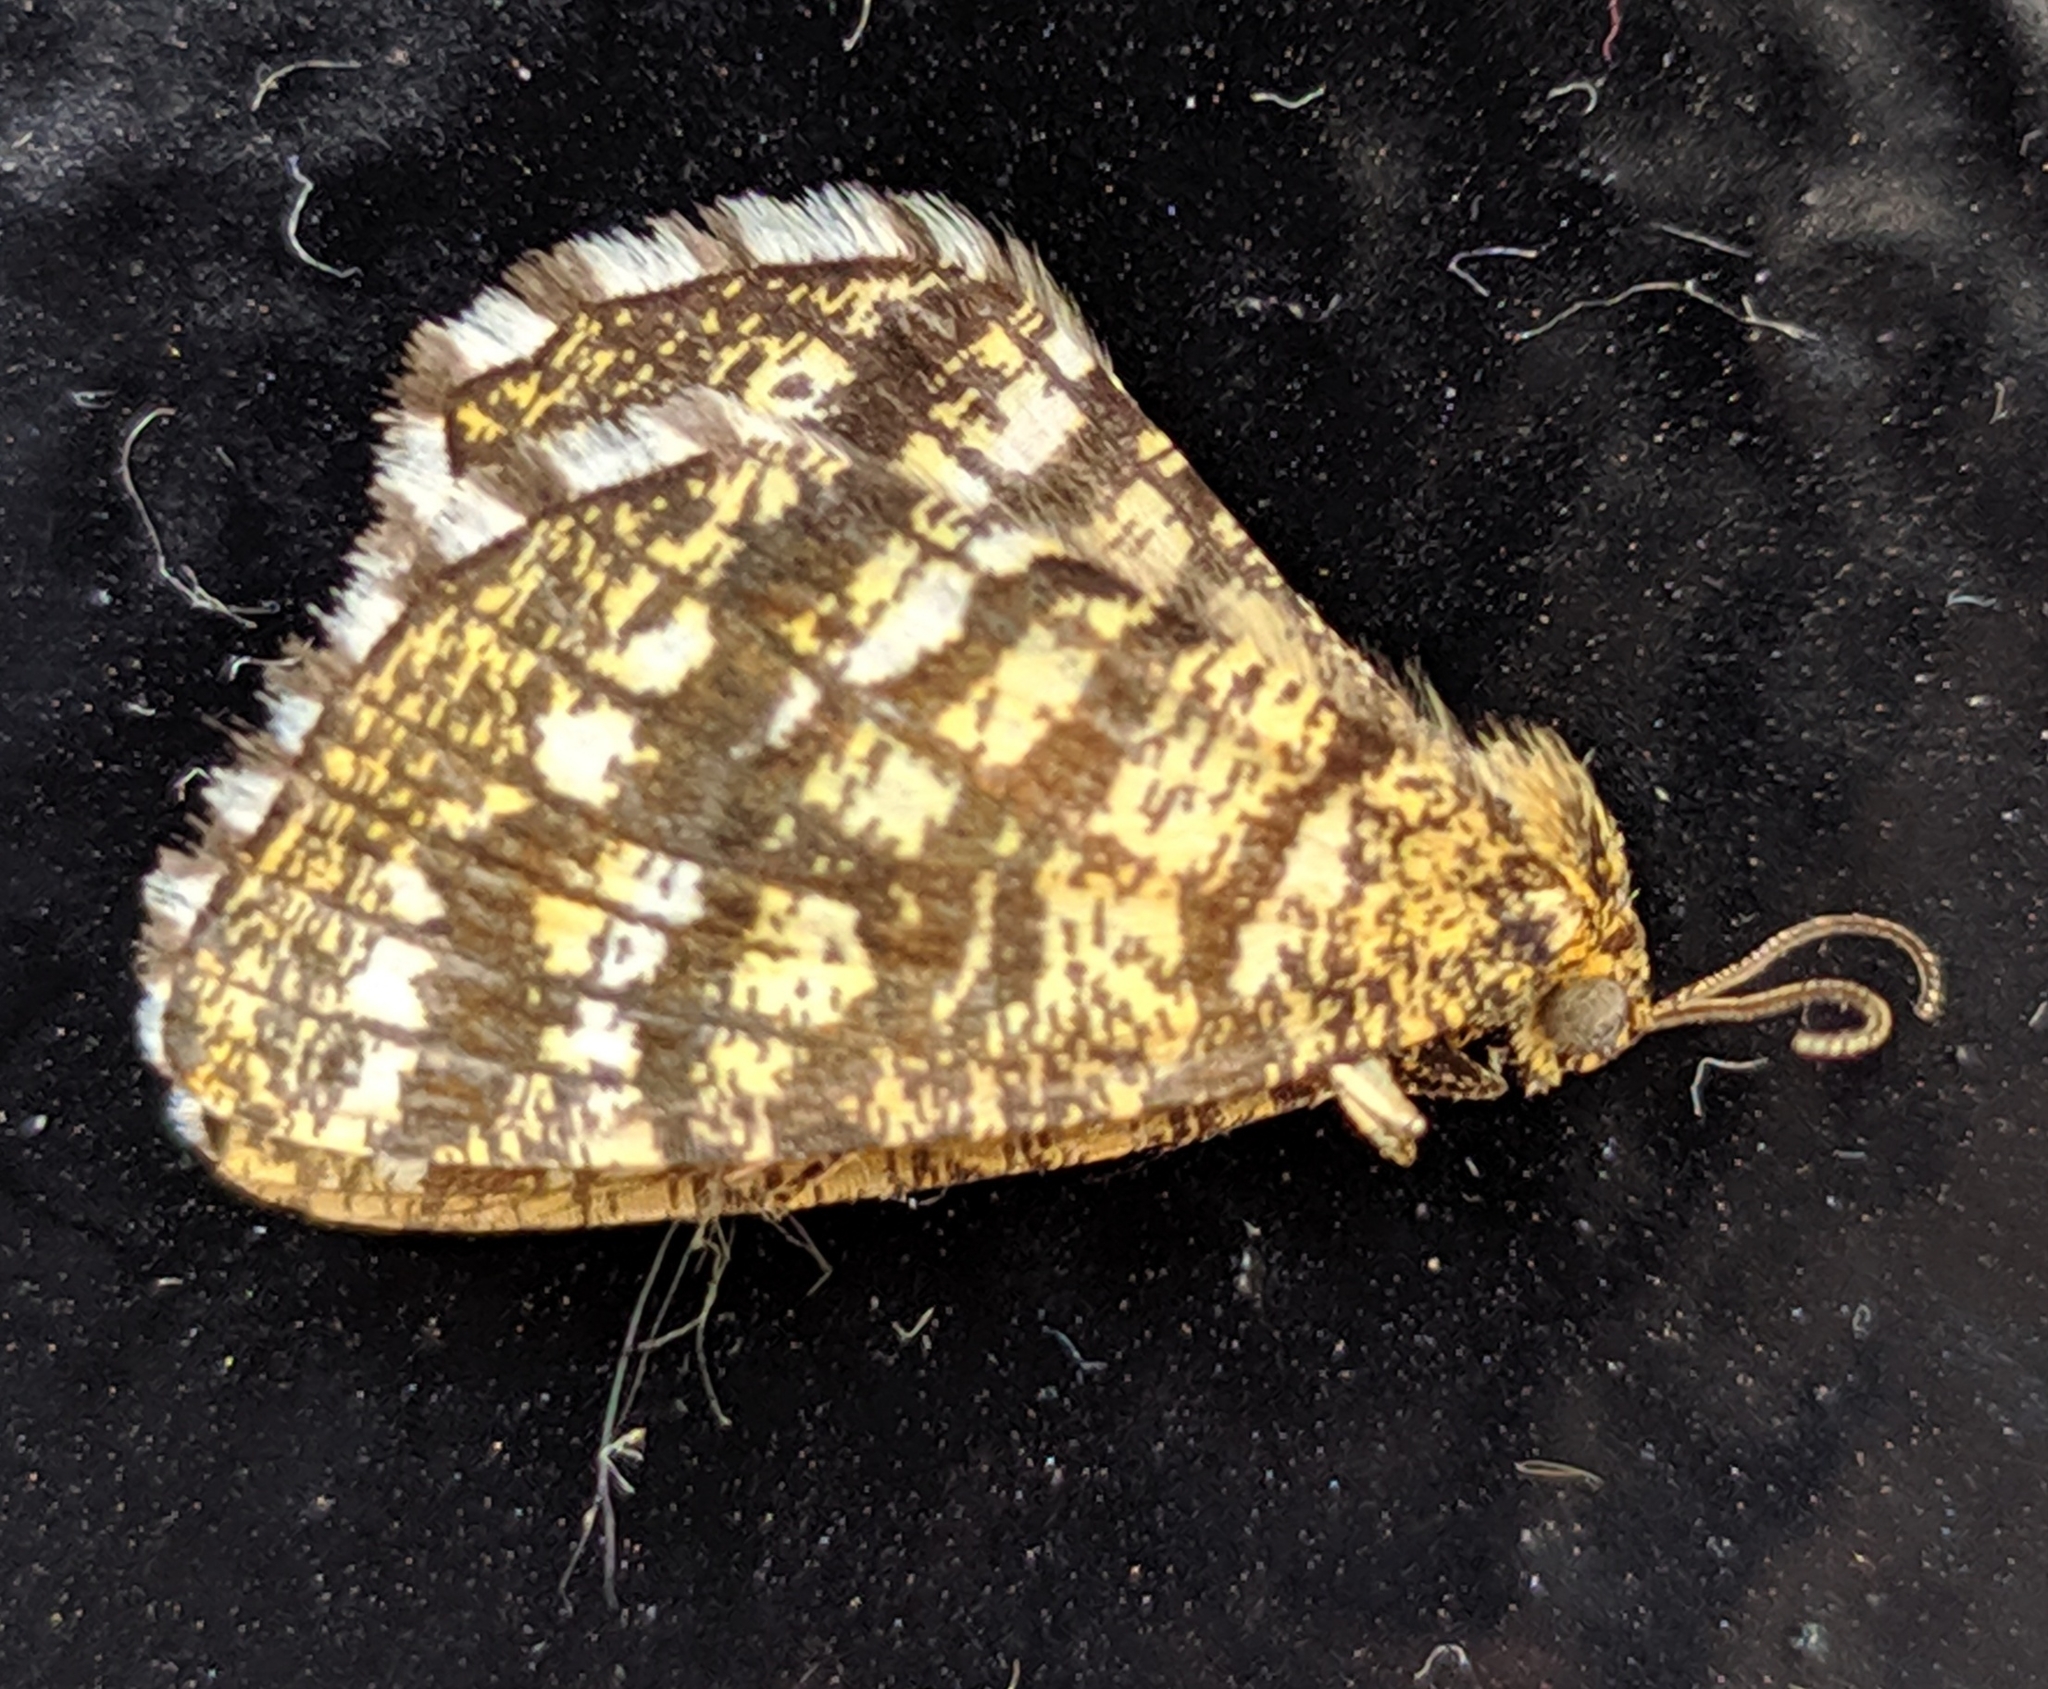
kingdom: Animalia
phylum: Arthropoda
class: Insecta
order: Lepidoptera
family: Geometridae
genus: Chiasmia
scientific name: Chiasmia clathrata
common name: Latticed heath
